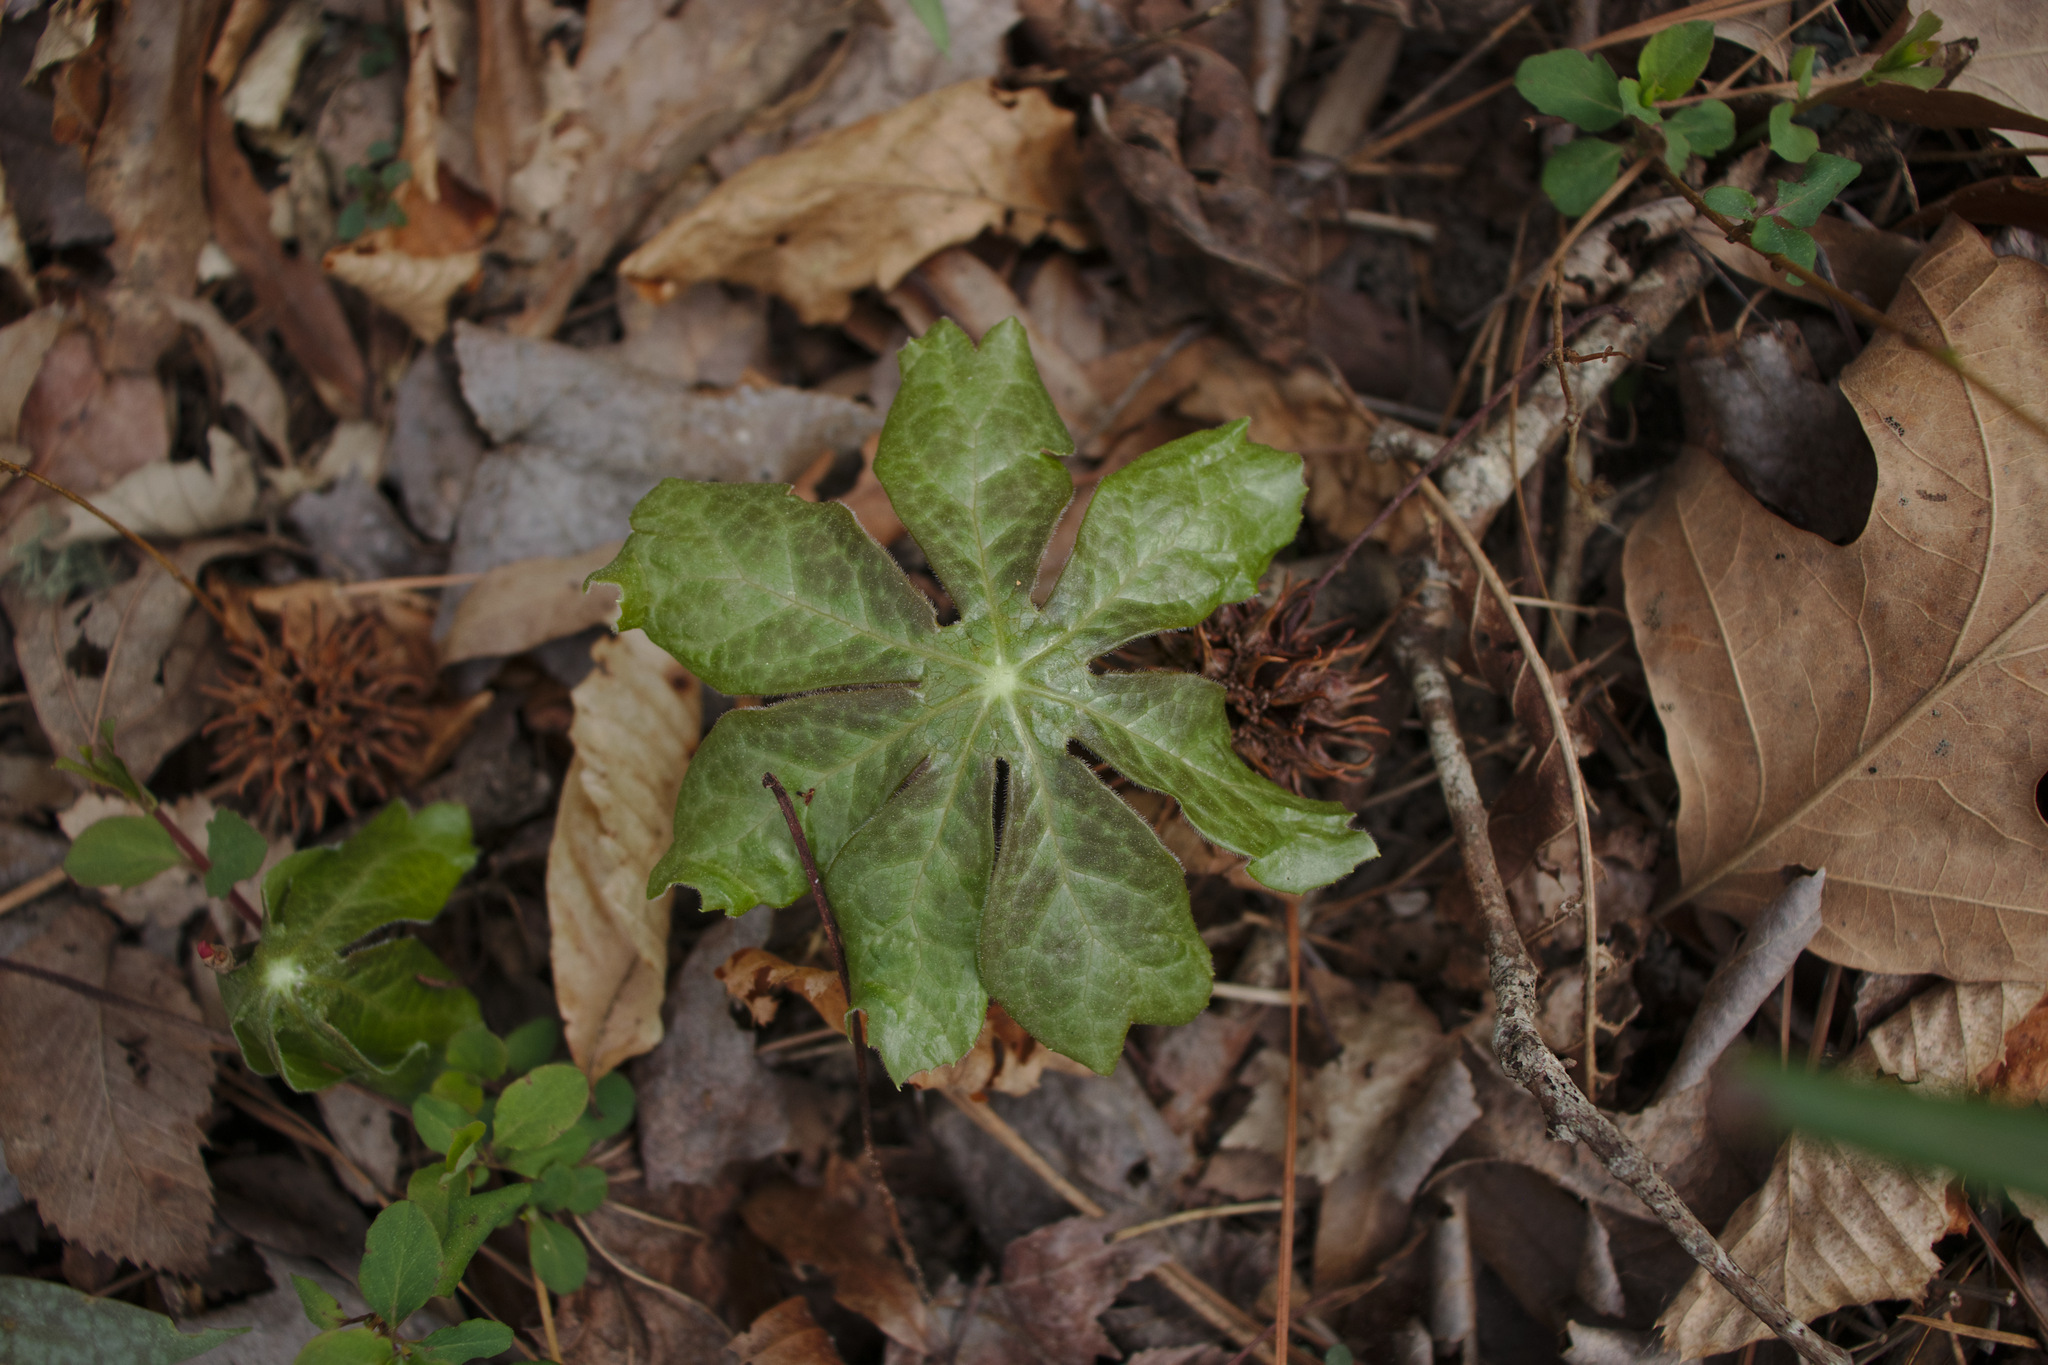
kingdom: Plantae
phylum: Tracheophyta
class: Magnoliopsida
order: Ranunculales
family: Berberidaceae
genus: Podophyllum
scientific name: Podophyllum peltatum
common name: Wild mandrake
